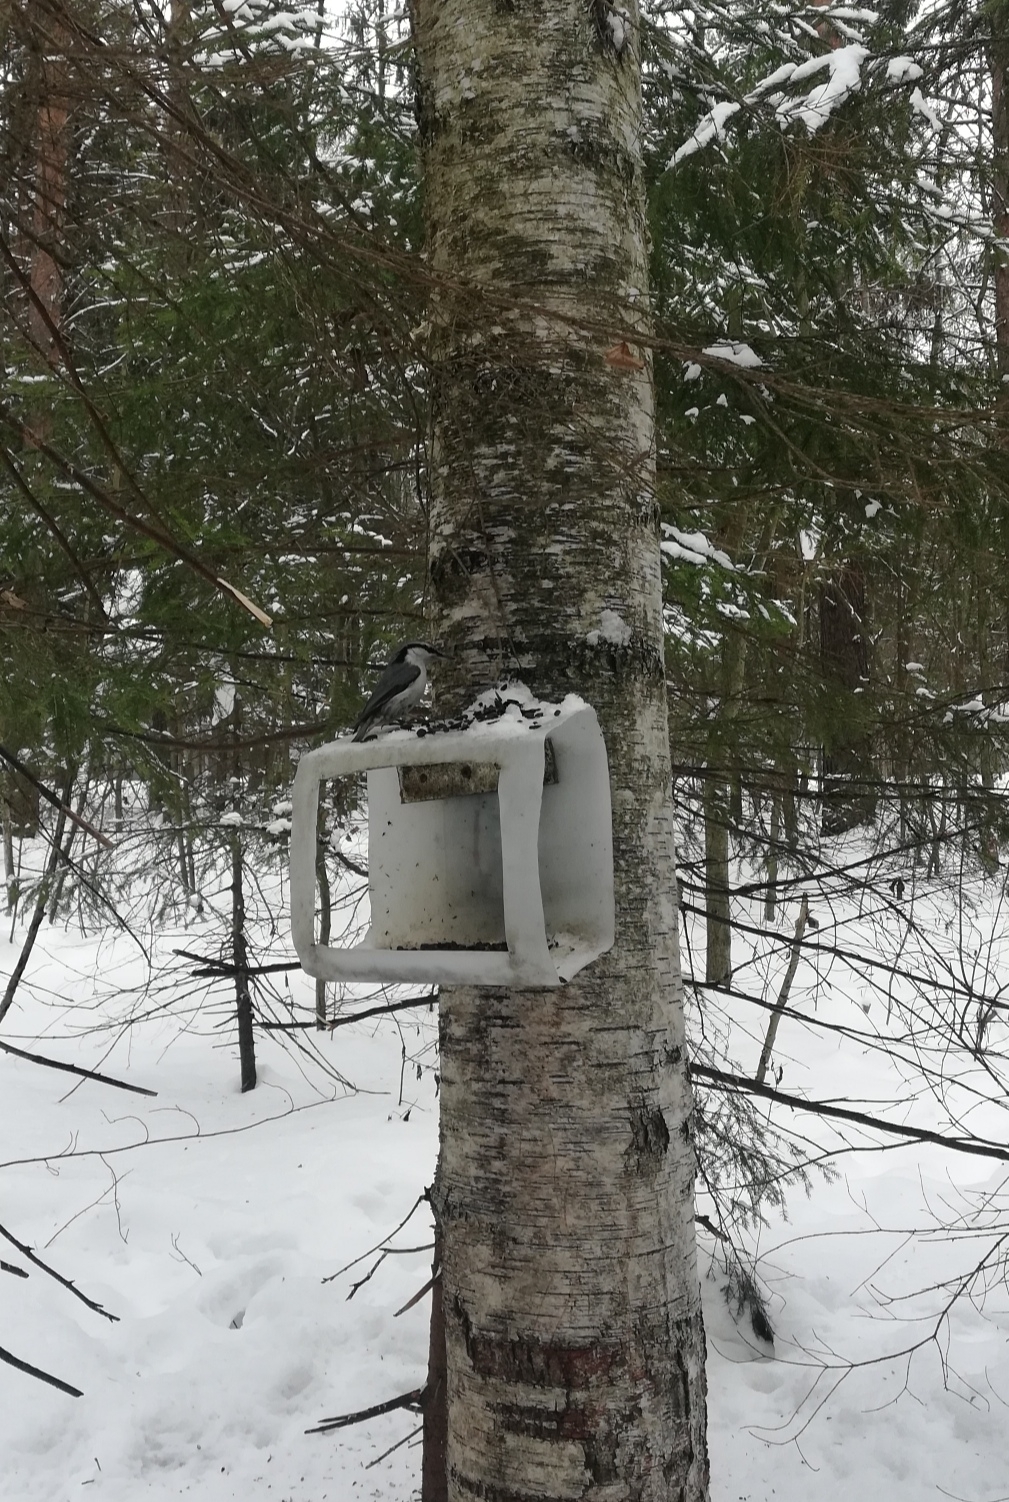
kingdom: Animalia
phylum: Chordata
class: Aves
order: Passeriformes
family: Sittidae
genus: Sitta
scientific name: Sitta europaea
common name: Eurasian nuthatch
